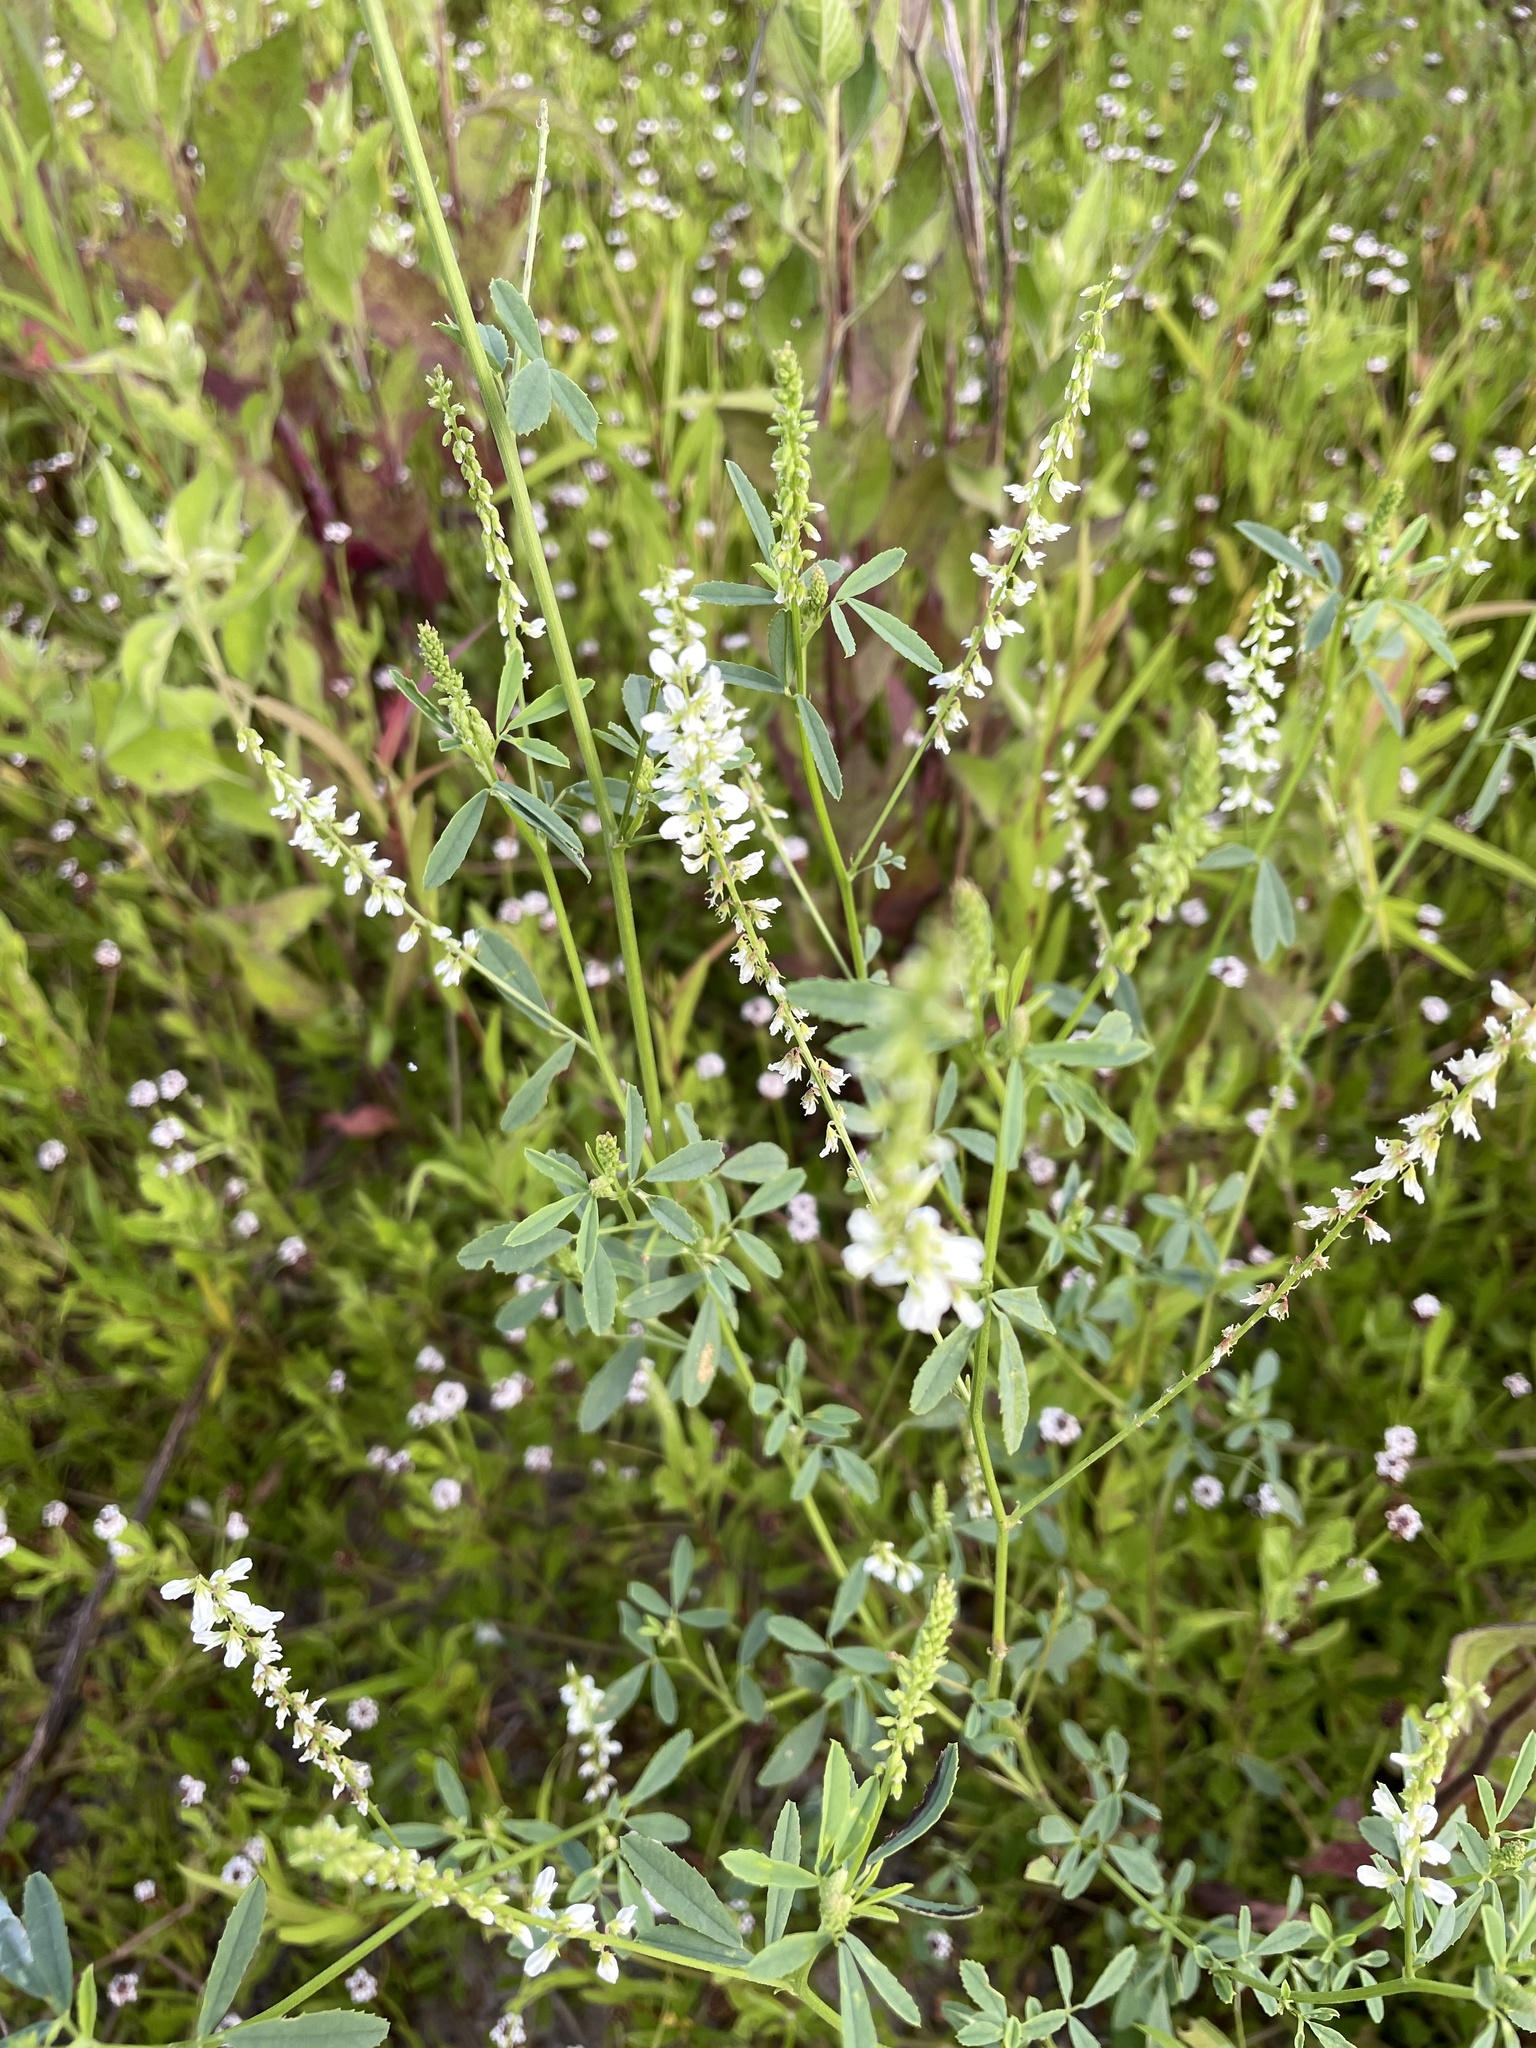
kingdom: Plantae
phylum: Tracheophyta
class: Magnoliopsida
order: Fabales
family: Fabaceae
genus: Melilotus
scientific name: Melilotus albus
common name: White melilot
